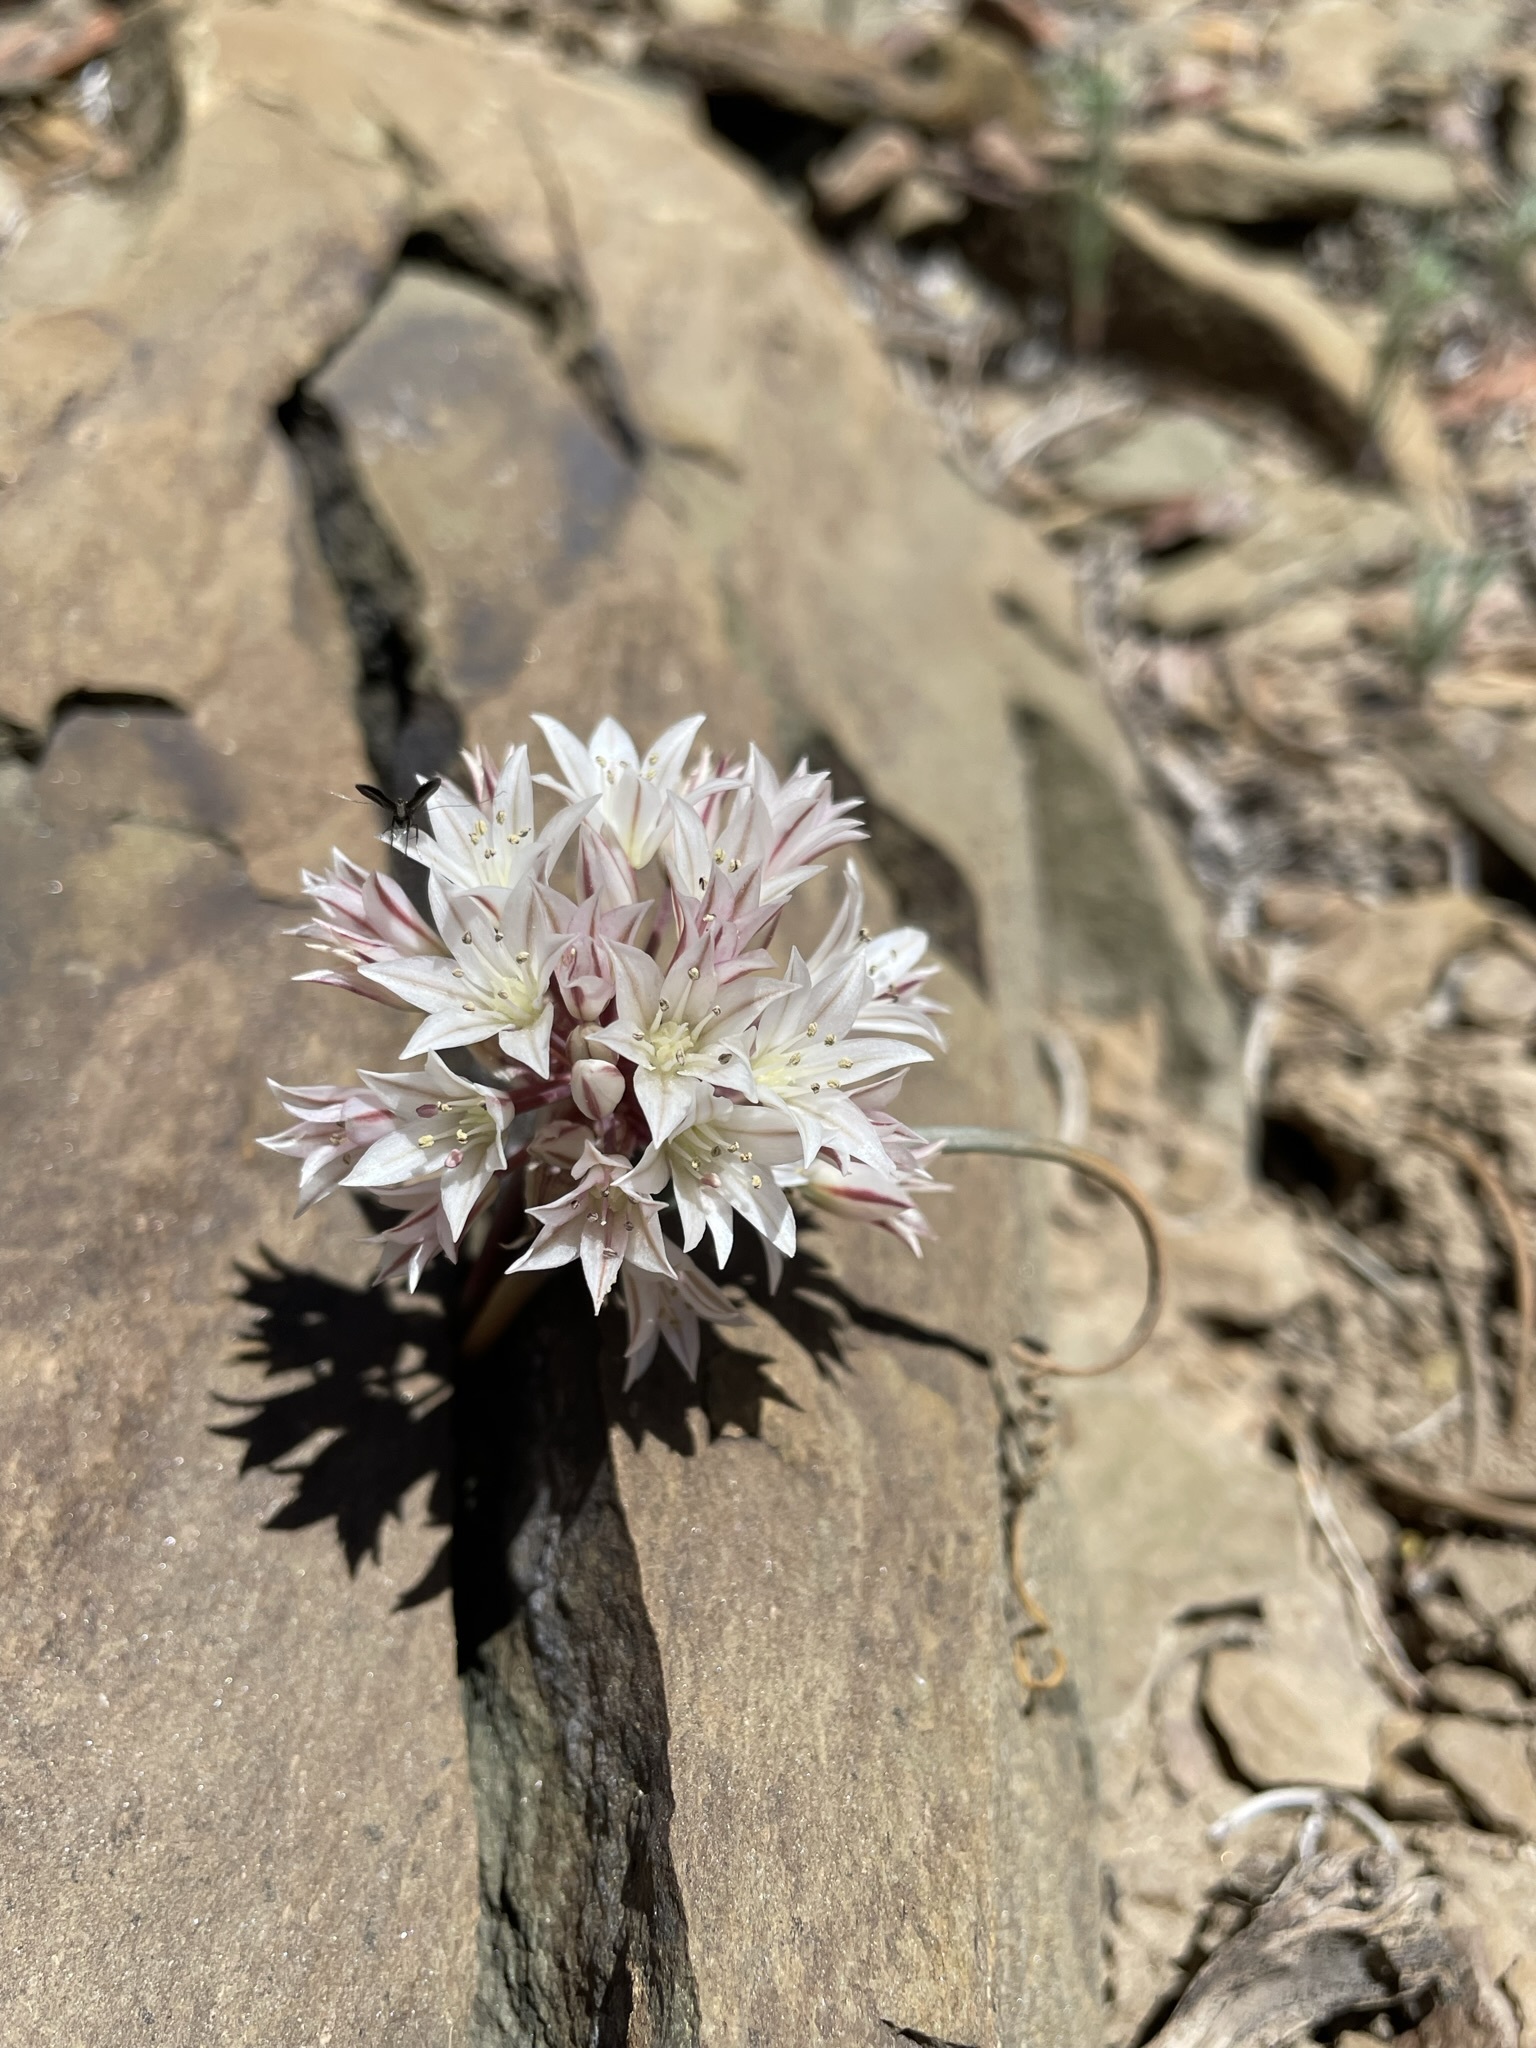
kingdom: Plantae
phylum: Tracheophyta
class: Liliopsida
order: Asparagales
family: Amaryllidaceae
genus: Allium
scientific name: Allium atrorubens
